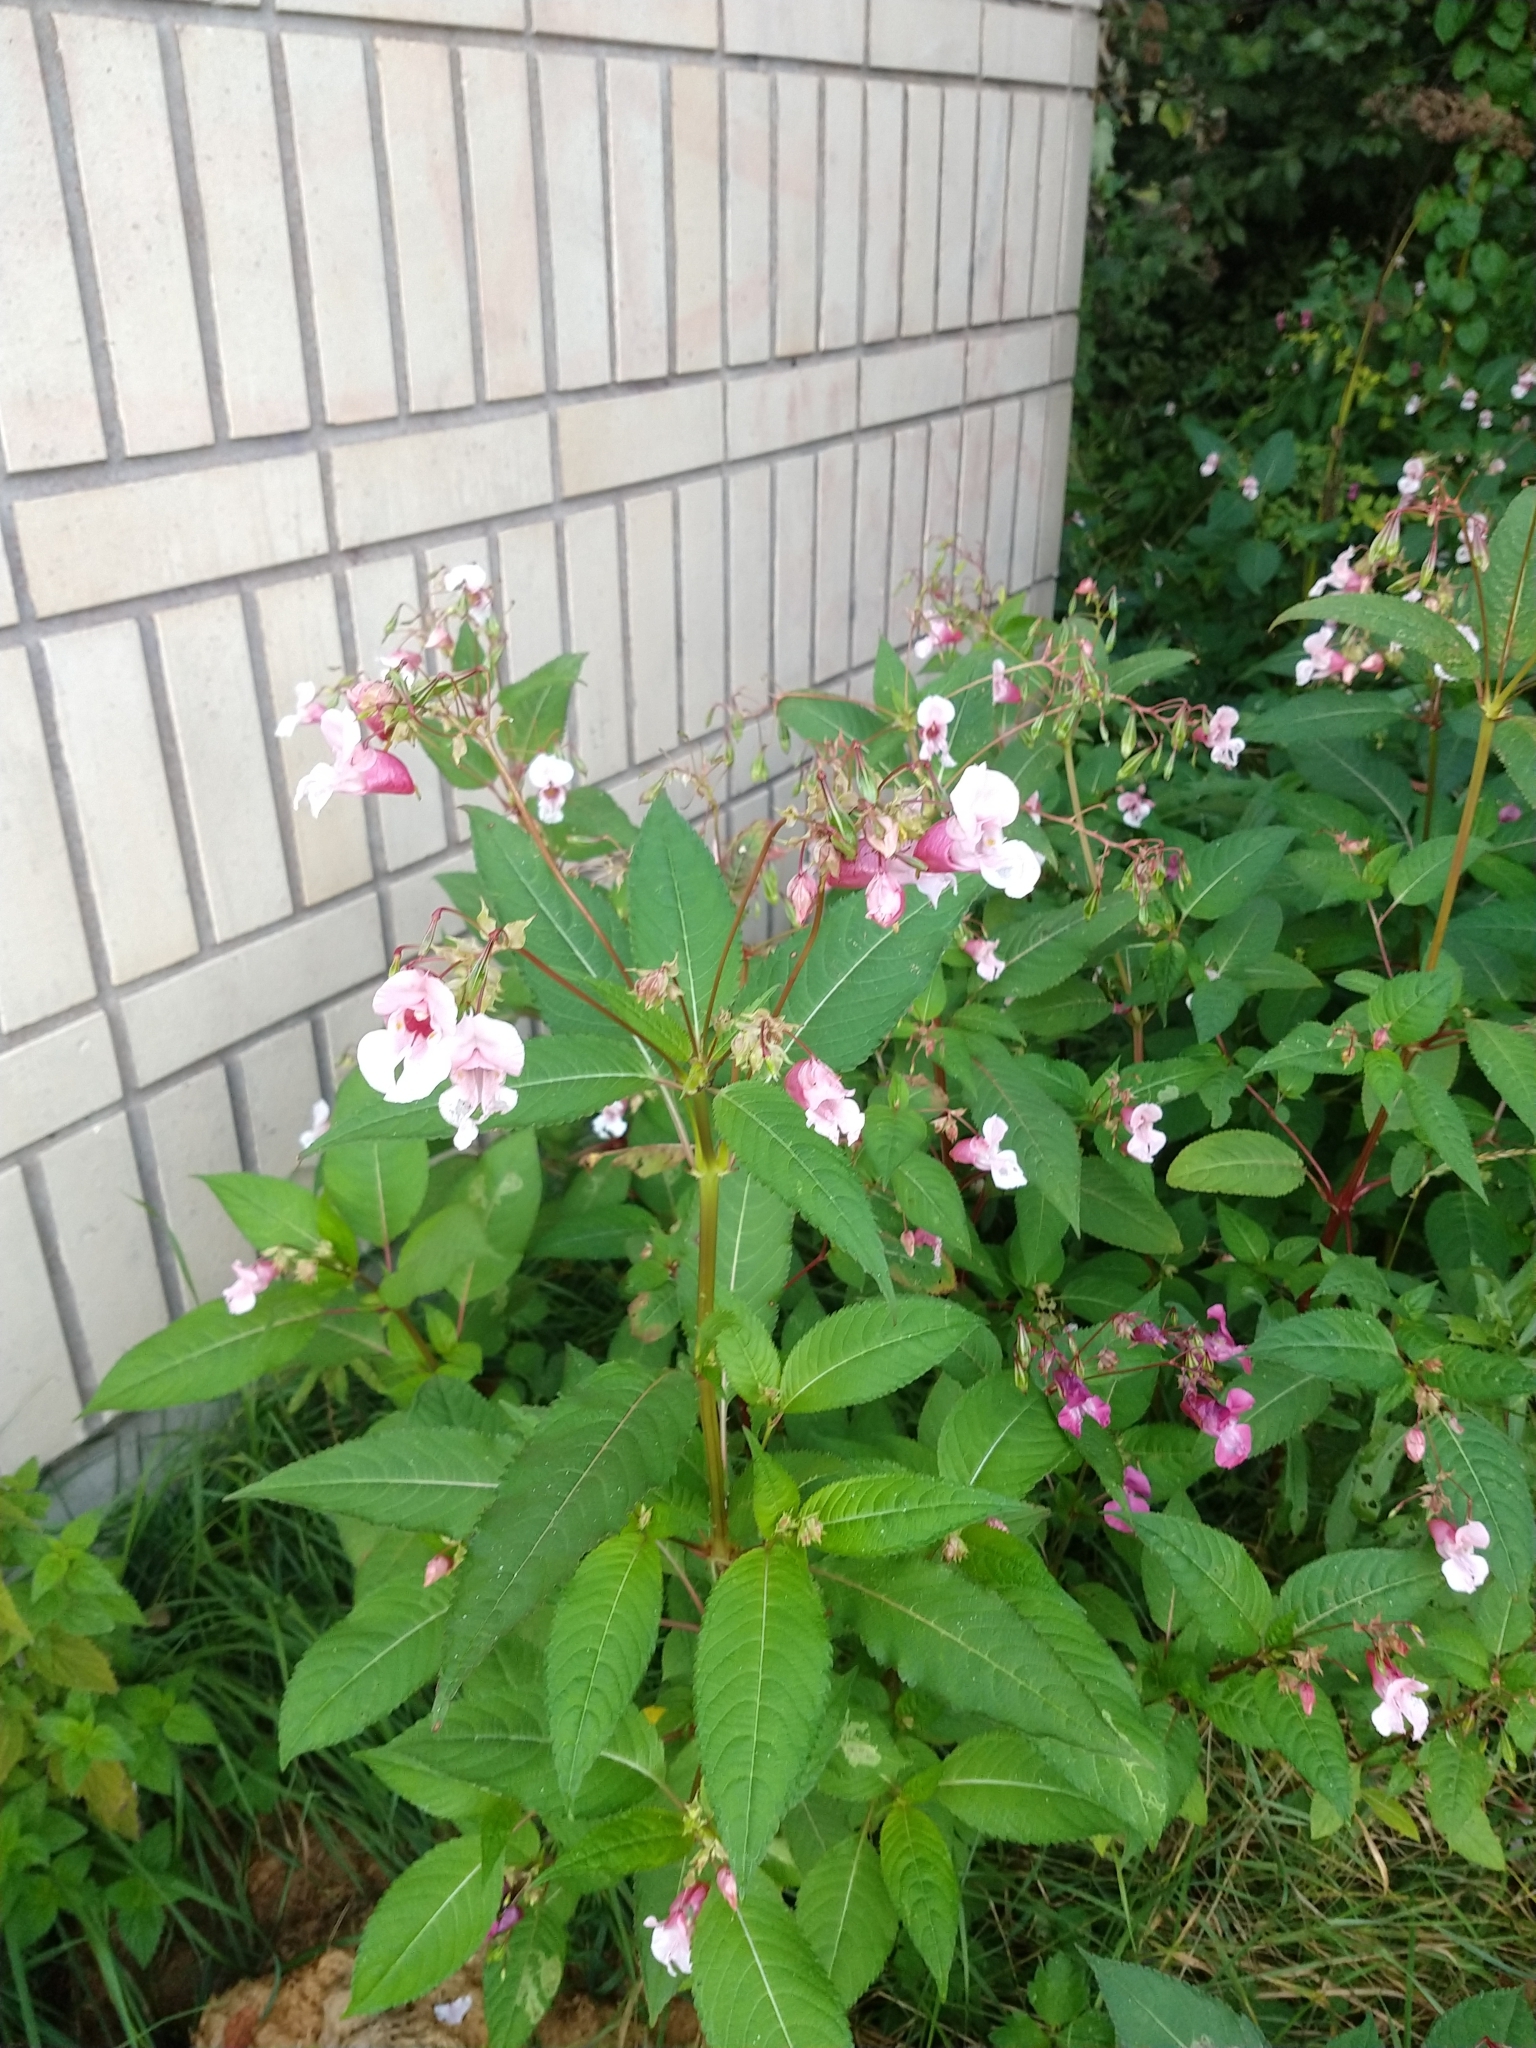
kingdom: Plantae
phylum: Tracheophyta
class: Magnoliopsida
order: Ericales
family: Balsaminaceae
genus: Impatiens
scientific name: Impatiens glandulifera
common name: Himalayan balsam
